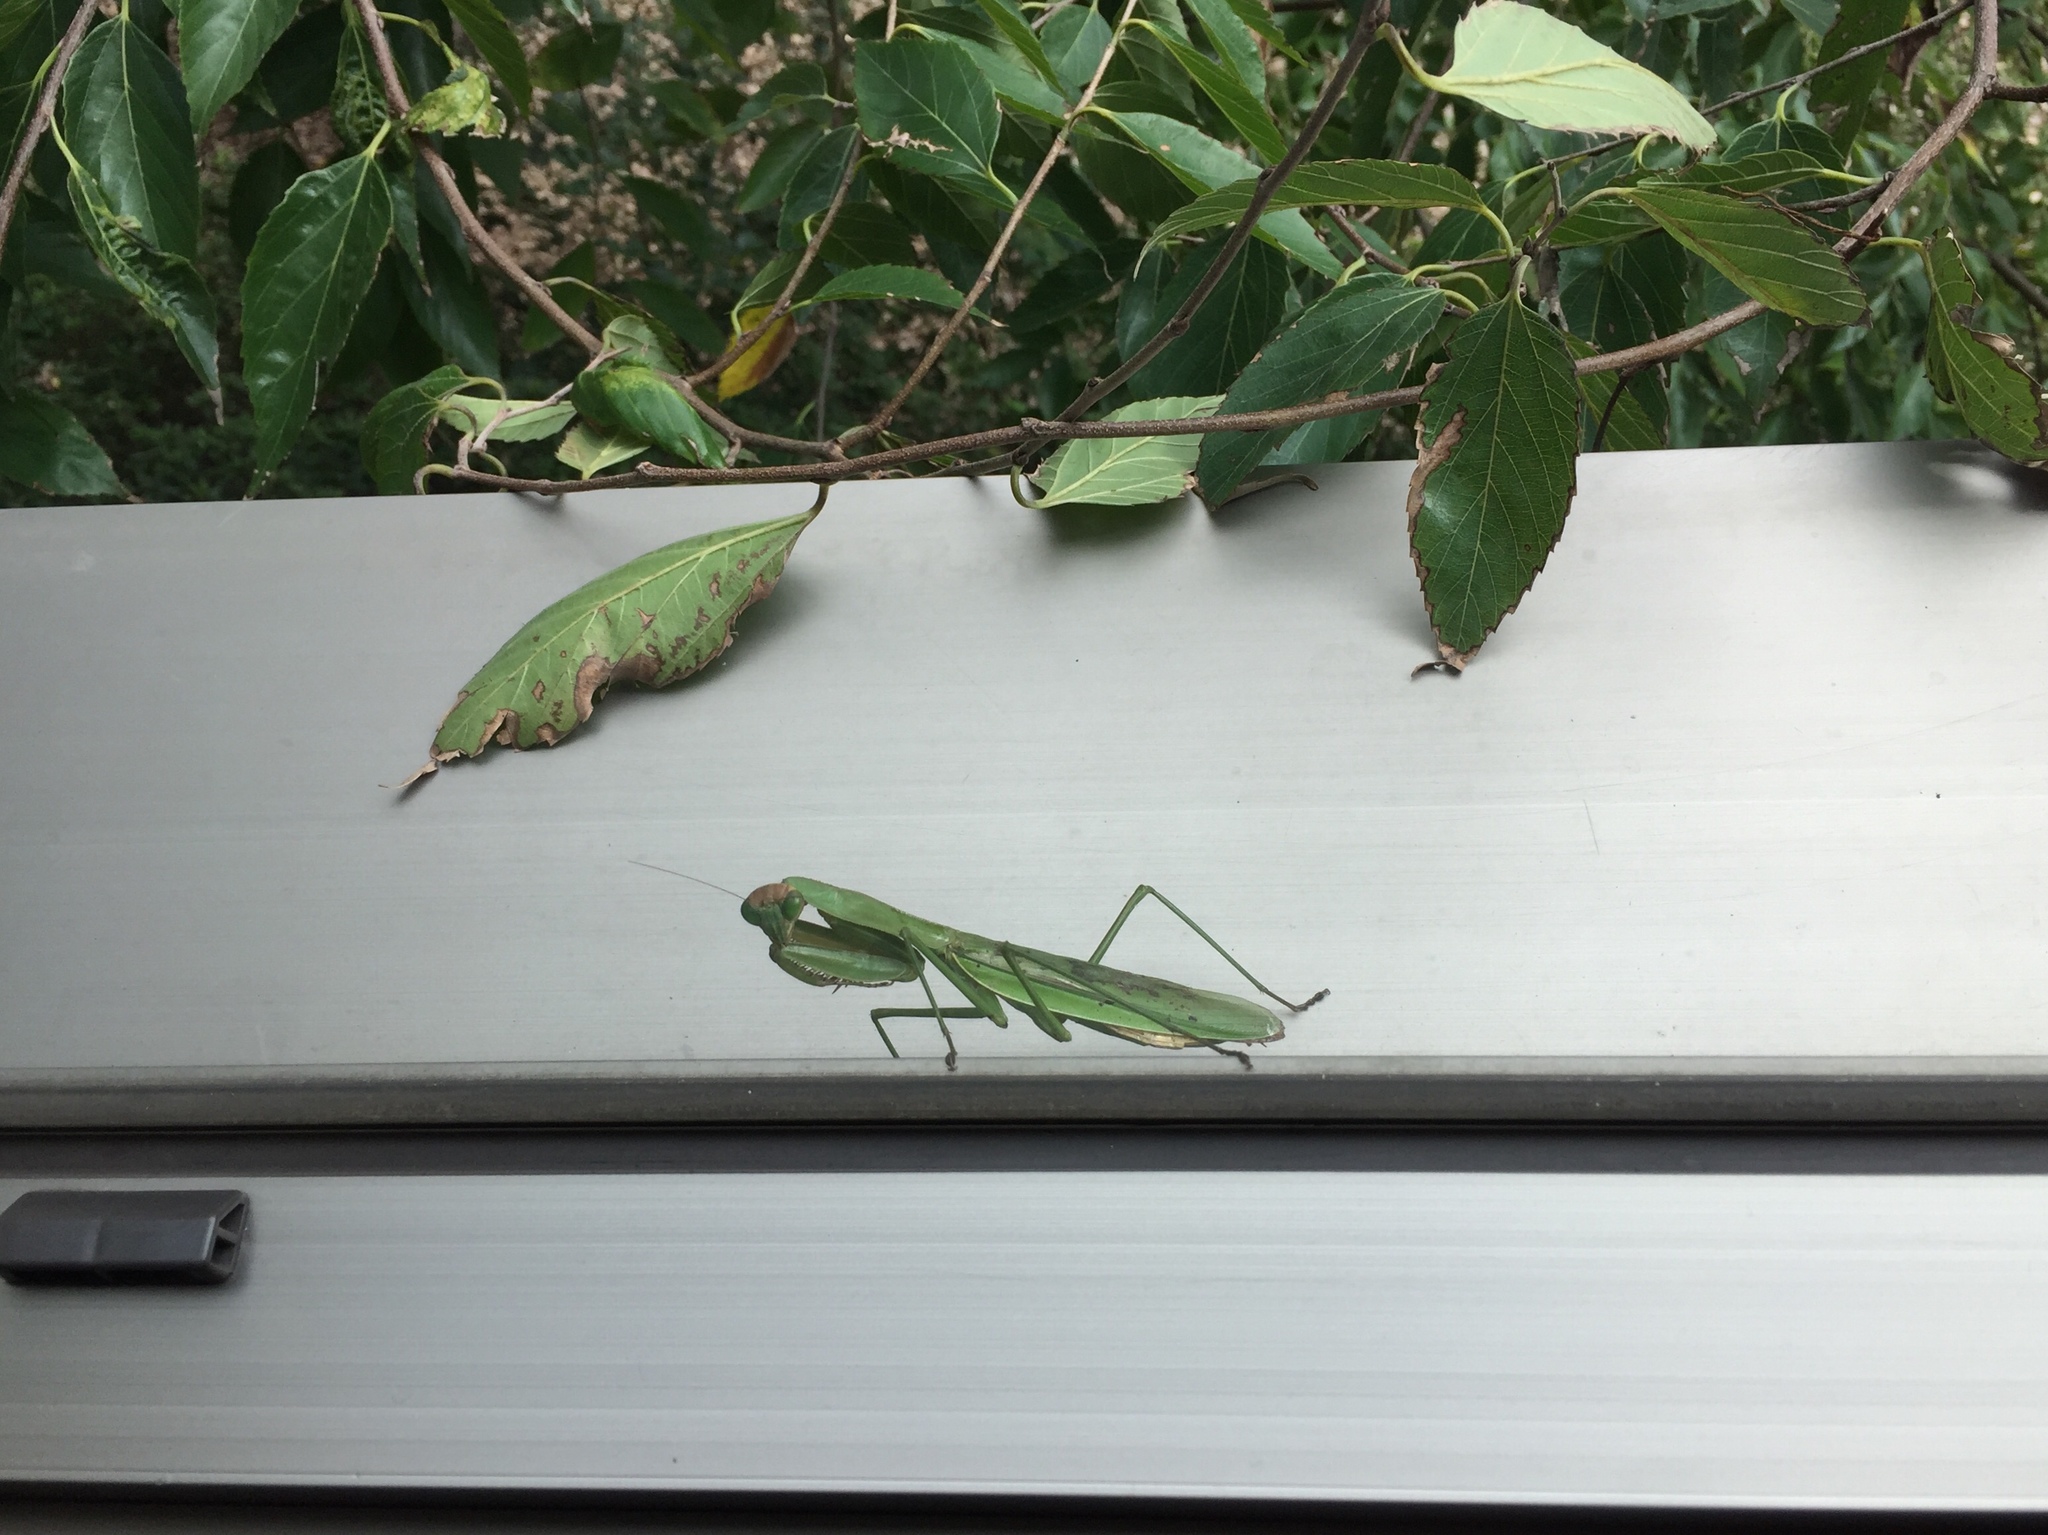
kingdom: Animalia
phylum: Arthropoda
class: Insecta
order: Mantodea
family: Mantidae
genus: Tenodera
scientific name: Tenodera sinensis
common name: Chinese mantis
